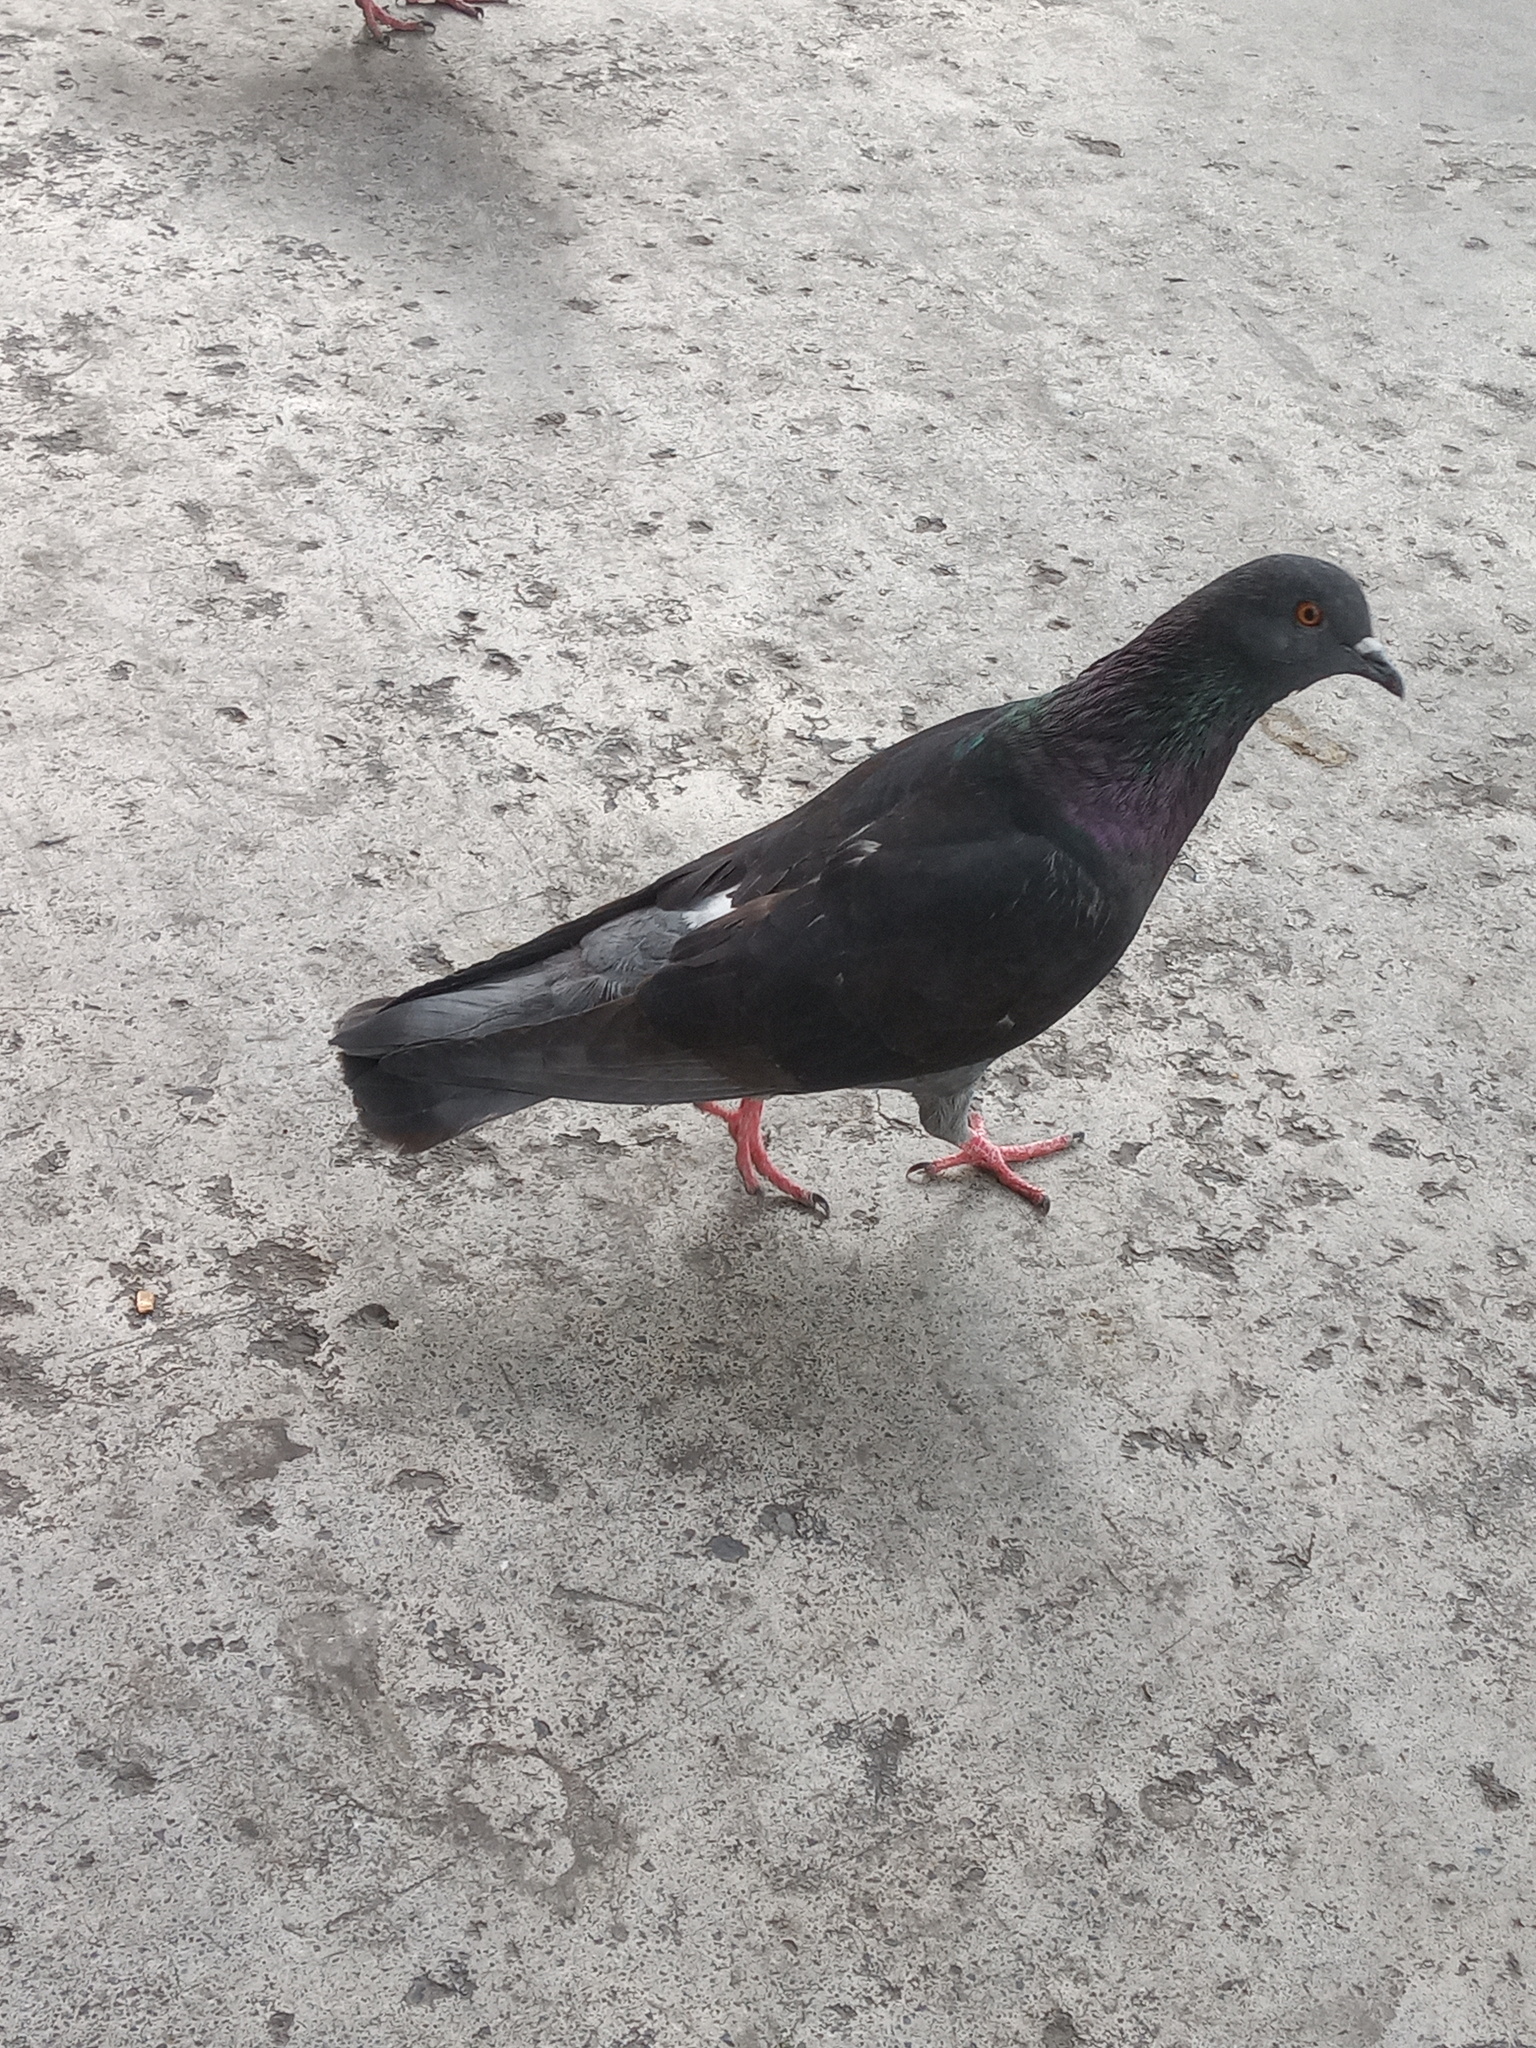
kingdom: Animalia
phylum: Chordata
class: Aves
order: Columbiformes
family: Columbidae
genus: Columba
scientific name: Columba livia
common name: Rock pigeon
